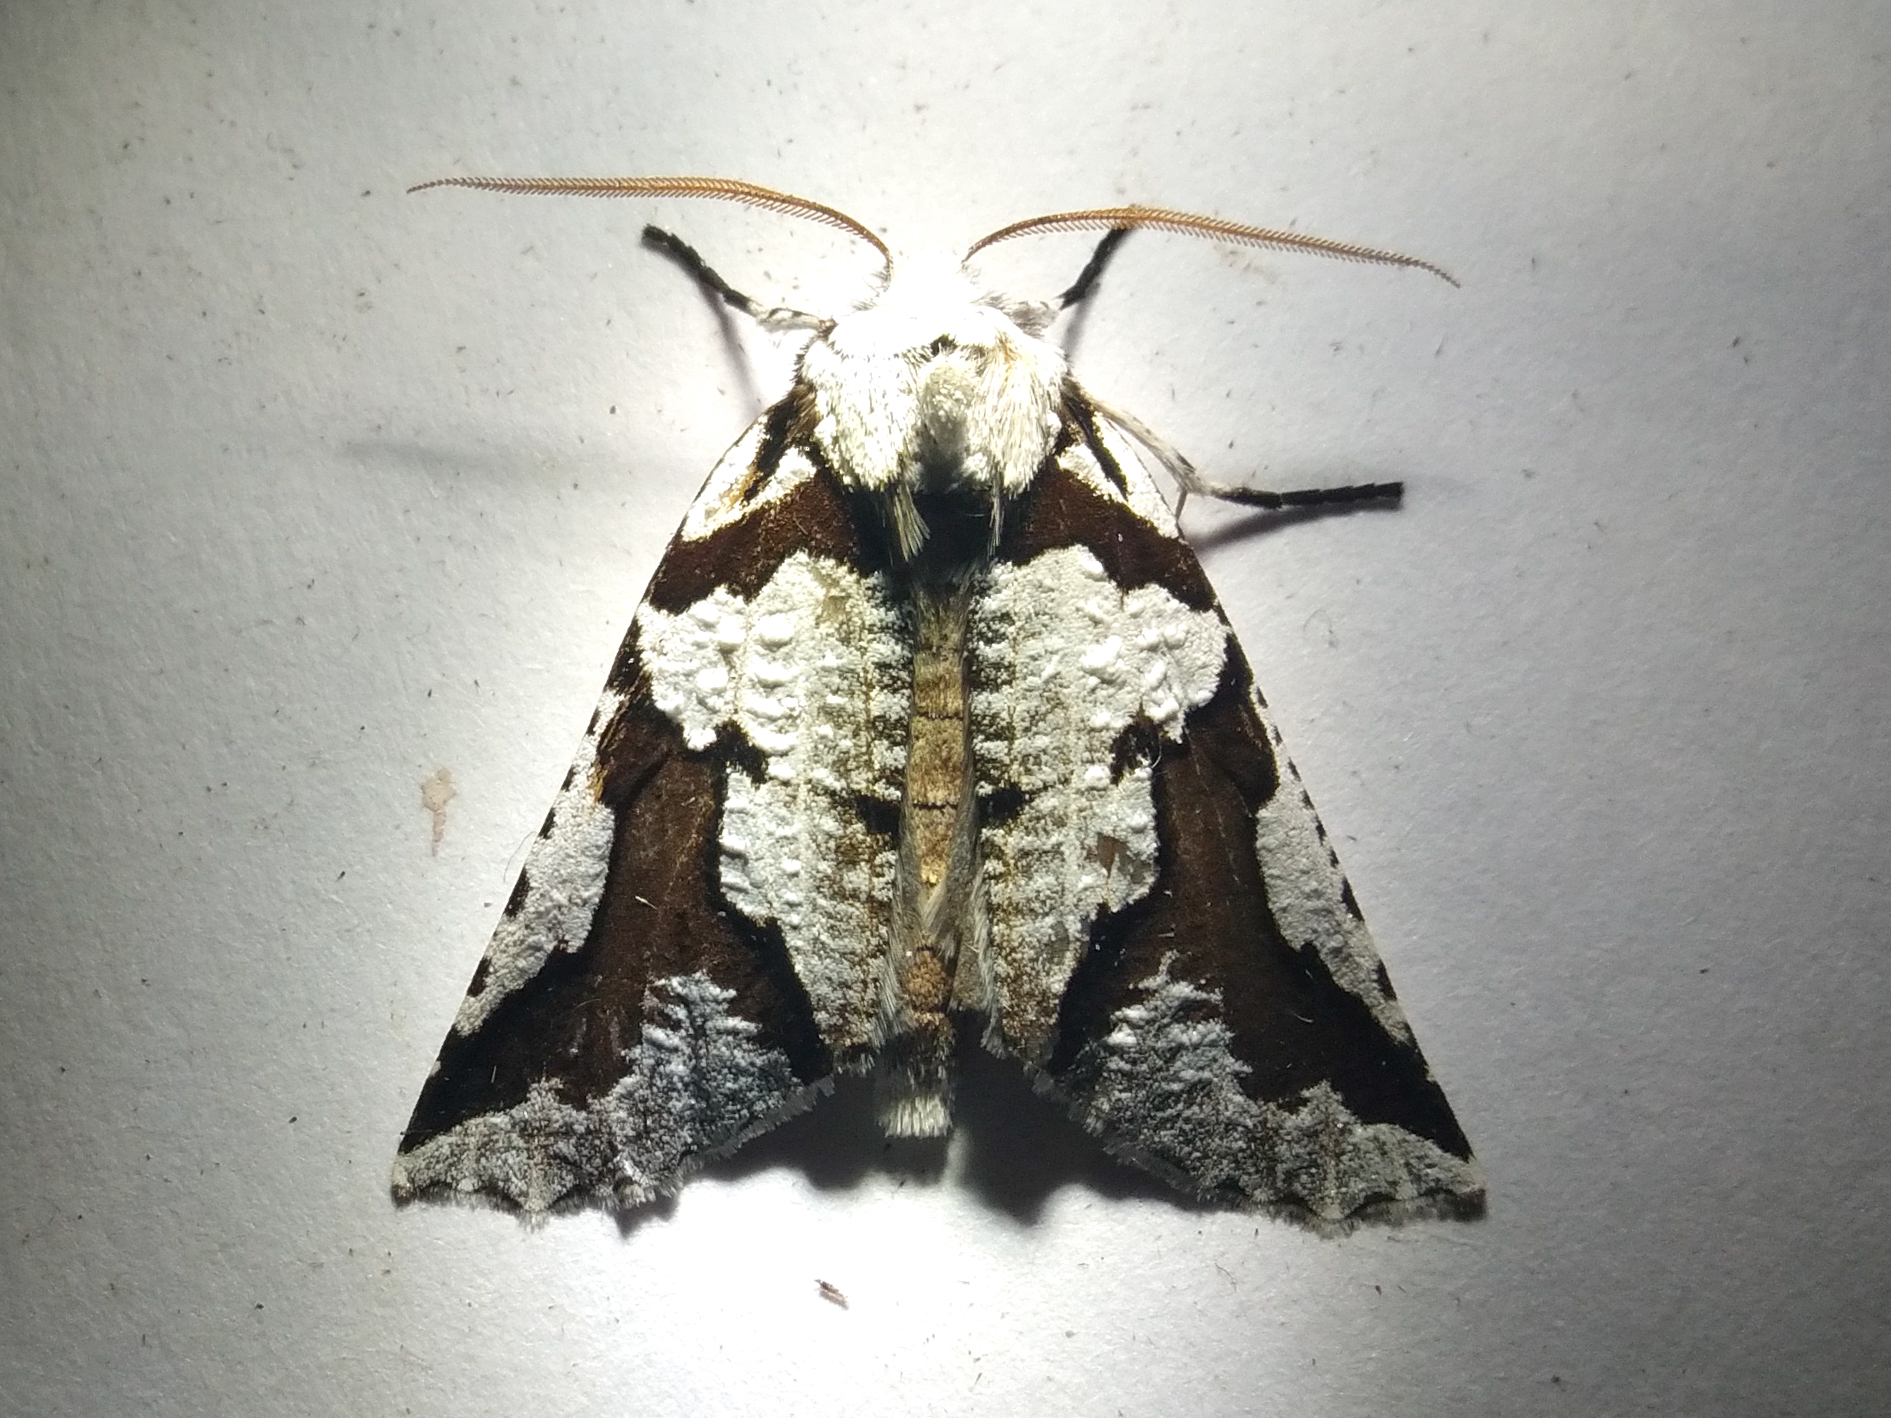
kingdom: Animalia
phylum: Arthropoda
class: Insecta
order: Lepidoptera
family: Geometridae
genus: Declana
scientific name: Declana
